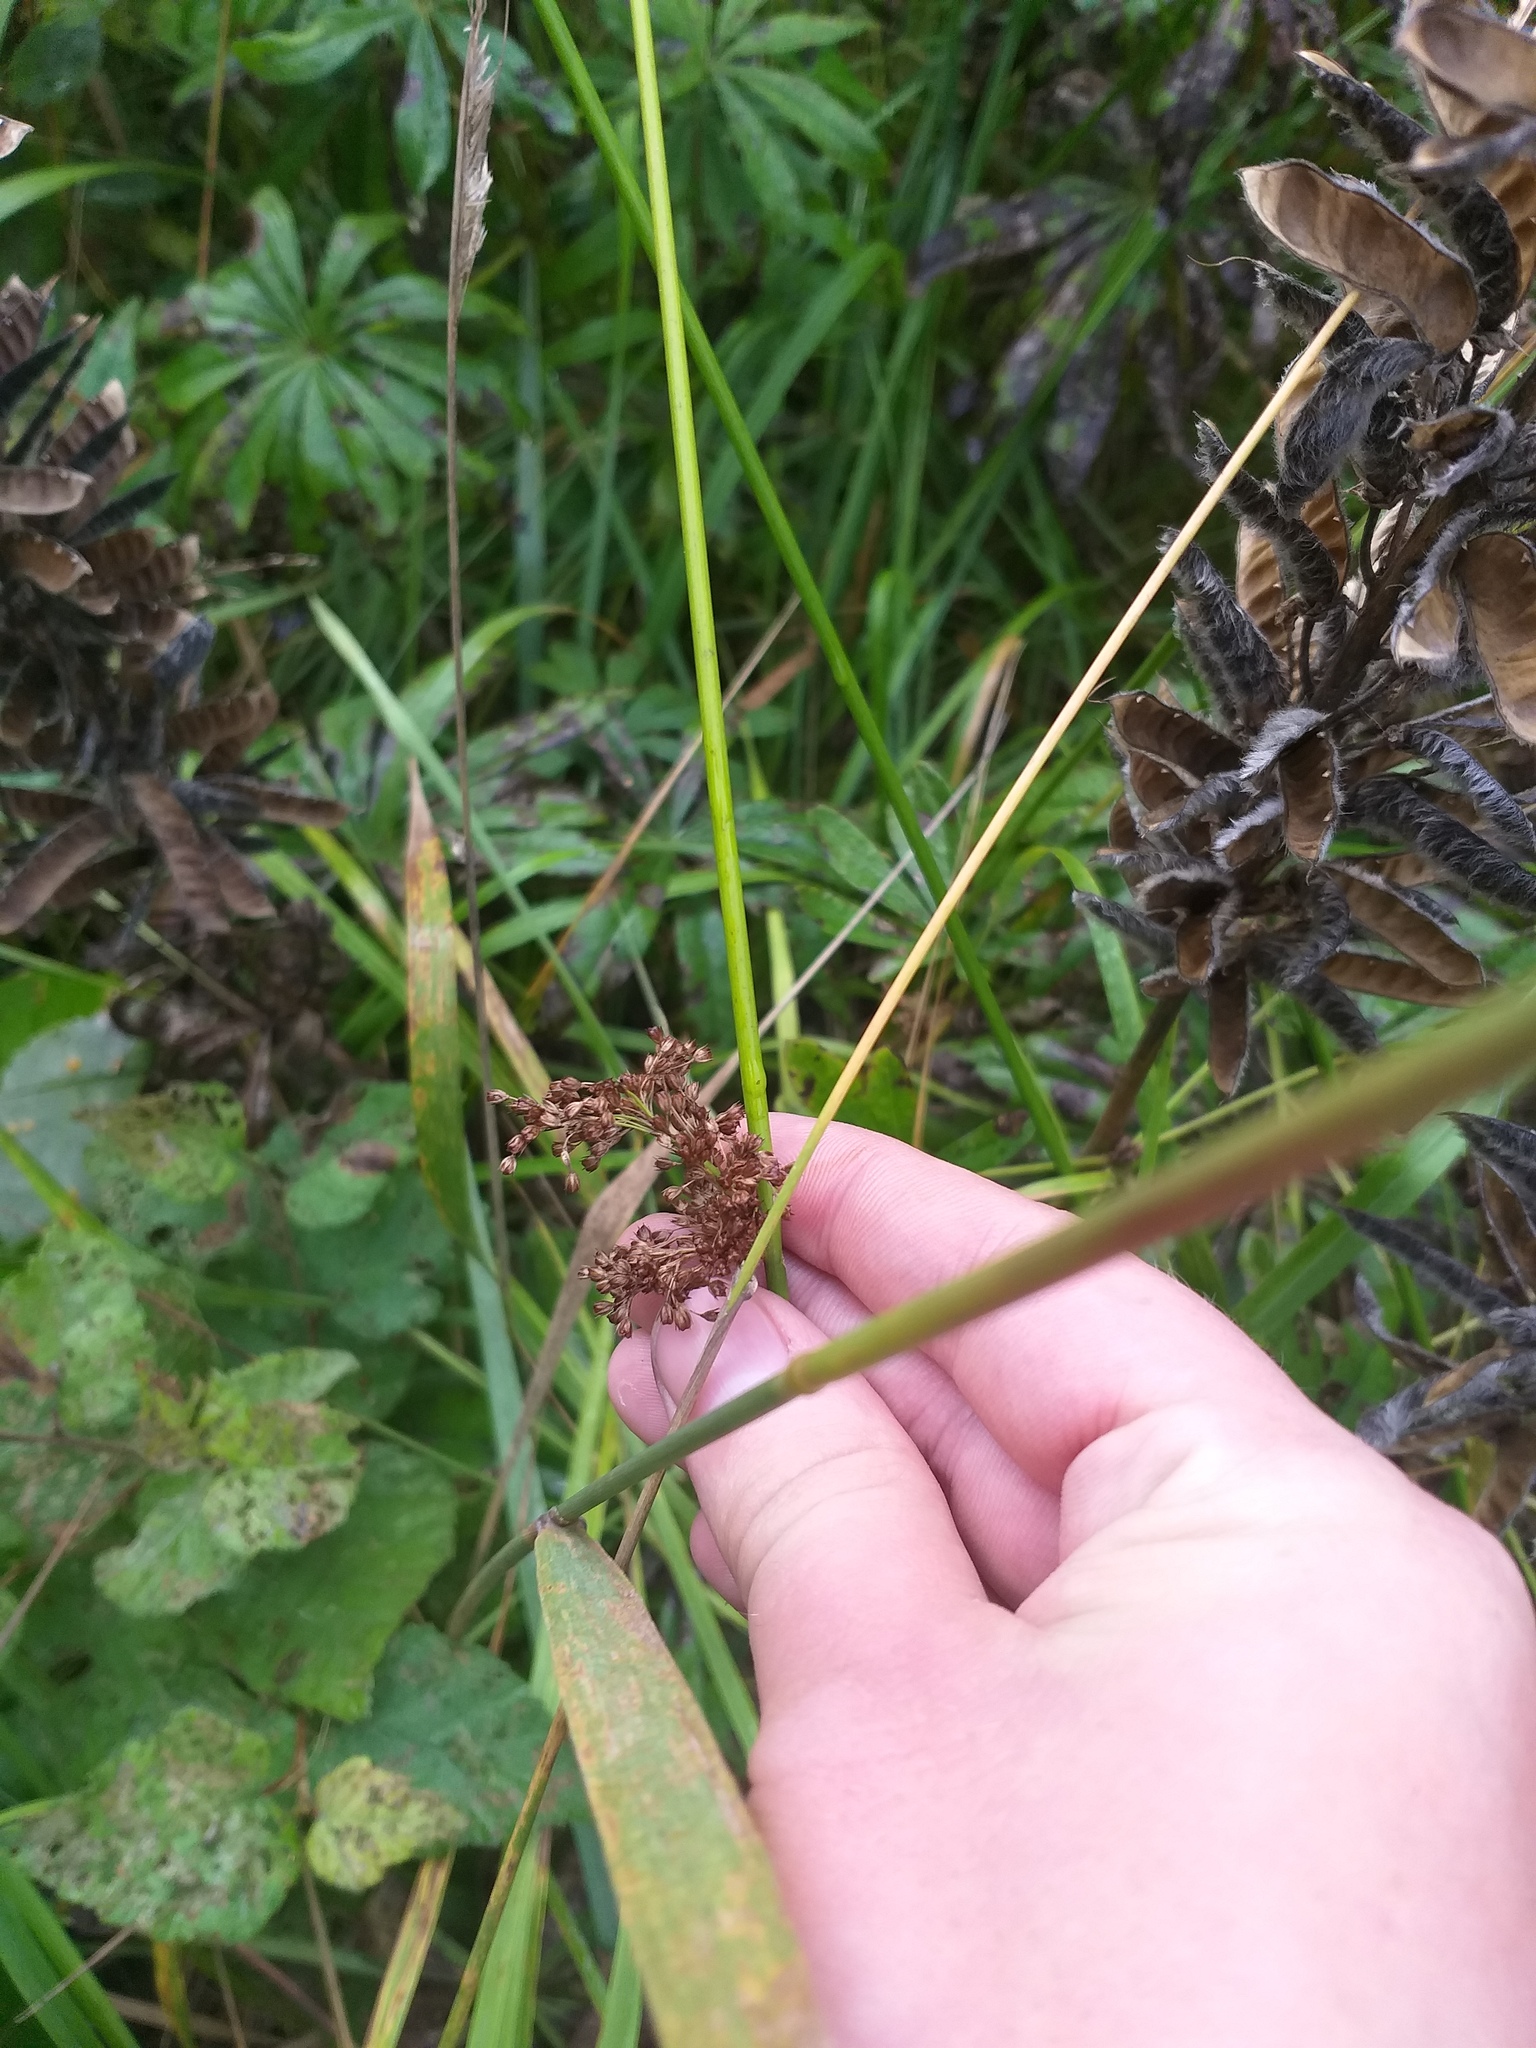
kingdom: Plantae
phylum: Tracheophyta
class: Liliopsida
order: Poales
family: Juncaceae
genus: Juncus
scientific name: Juncus effusus
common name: Soft rush
